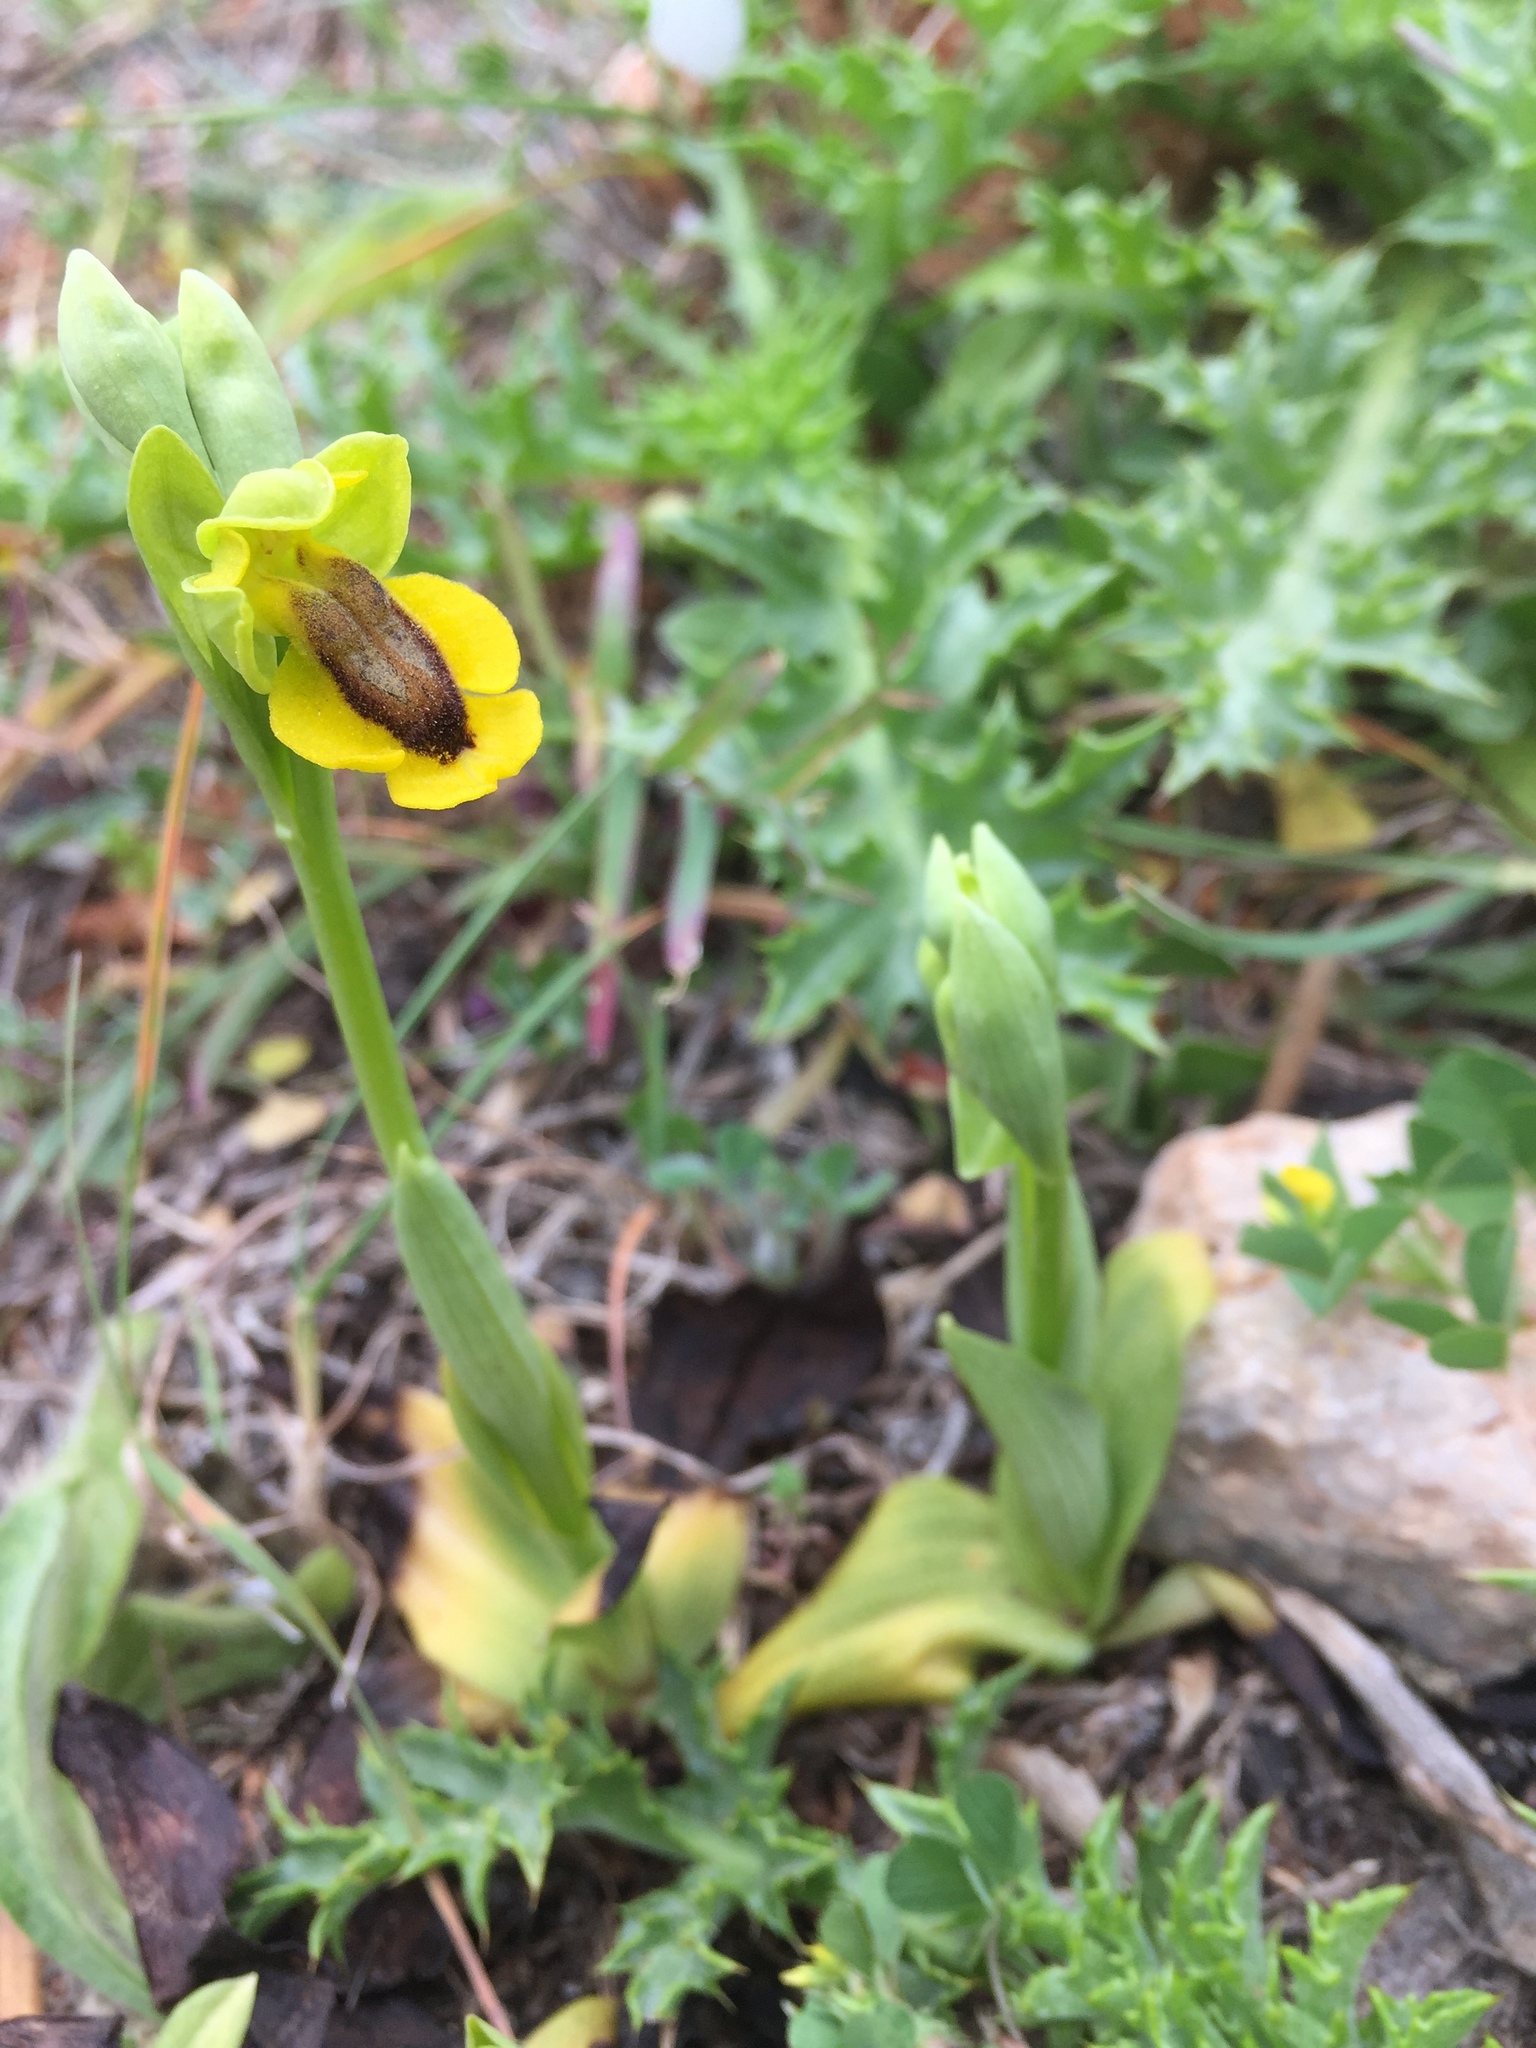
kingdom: Plantae
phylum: Tracheophyta
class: Liliopsida
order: Asparagales
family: Orchidaceae
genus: Ophrys
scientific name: Ophrys lutea
